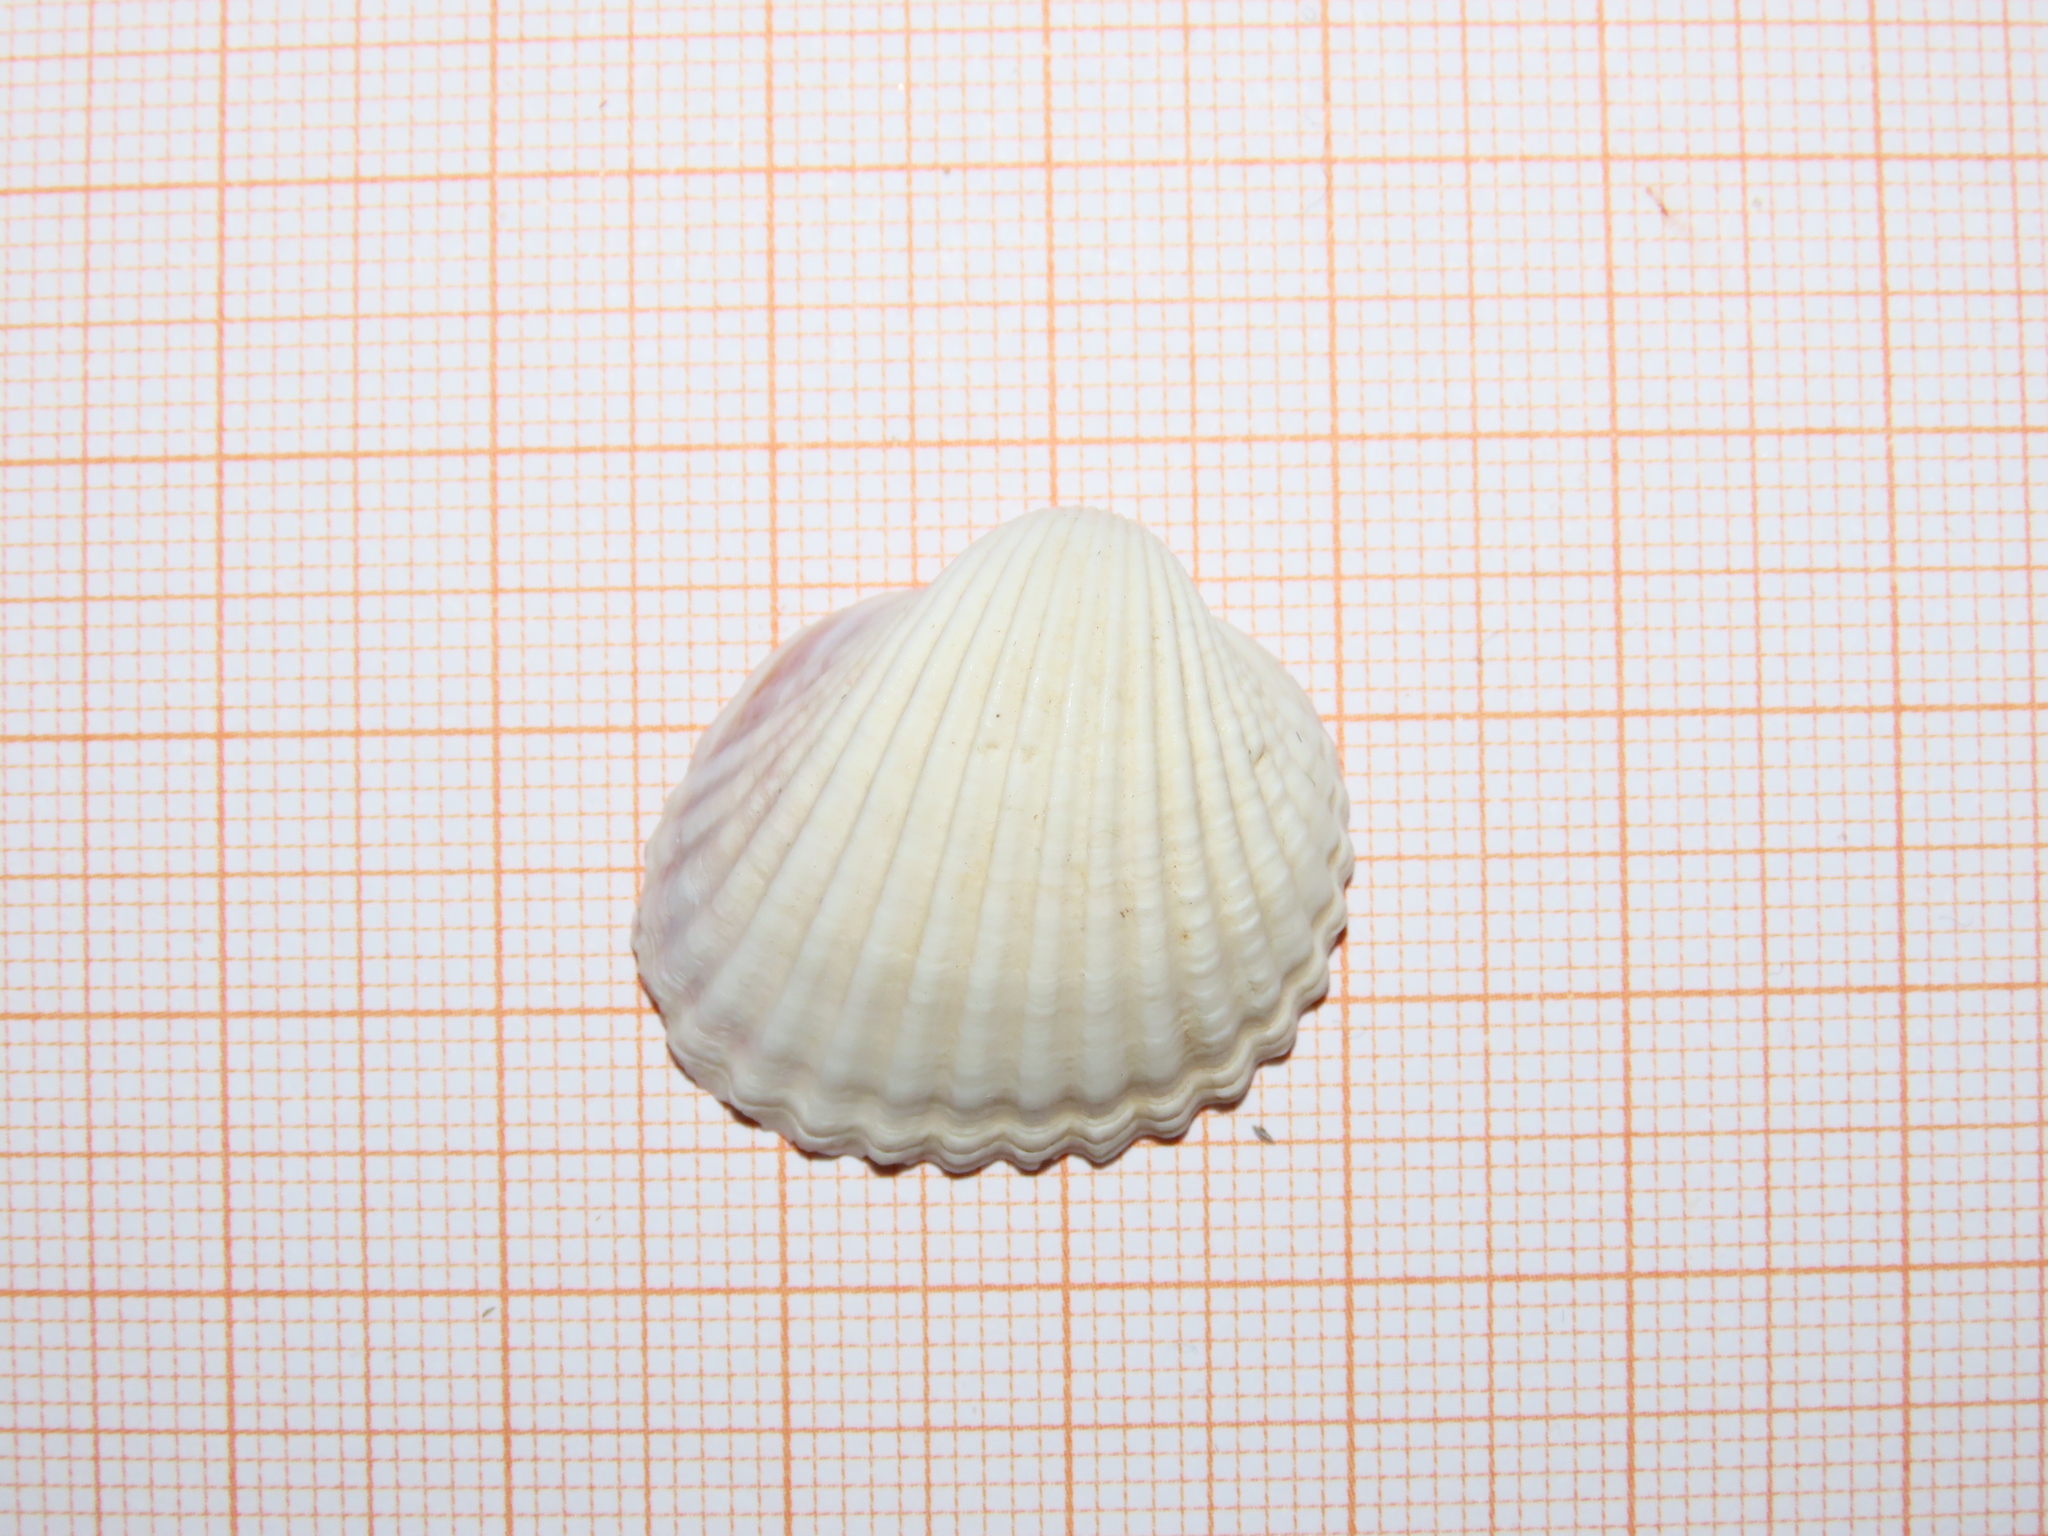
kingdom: Animalia
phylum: Mollusca
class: Bivalvia
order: Cardiida
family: Cardiidae
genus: Cerastoderma
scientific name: Cerastoderma glaucum
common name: Lagoon cockle
